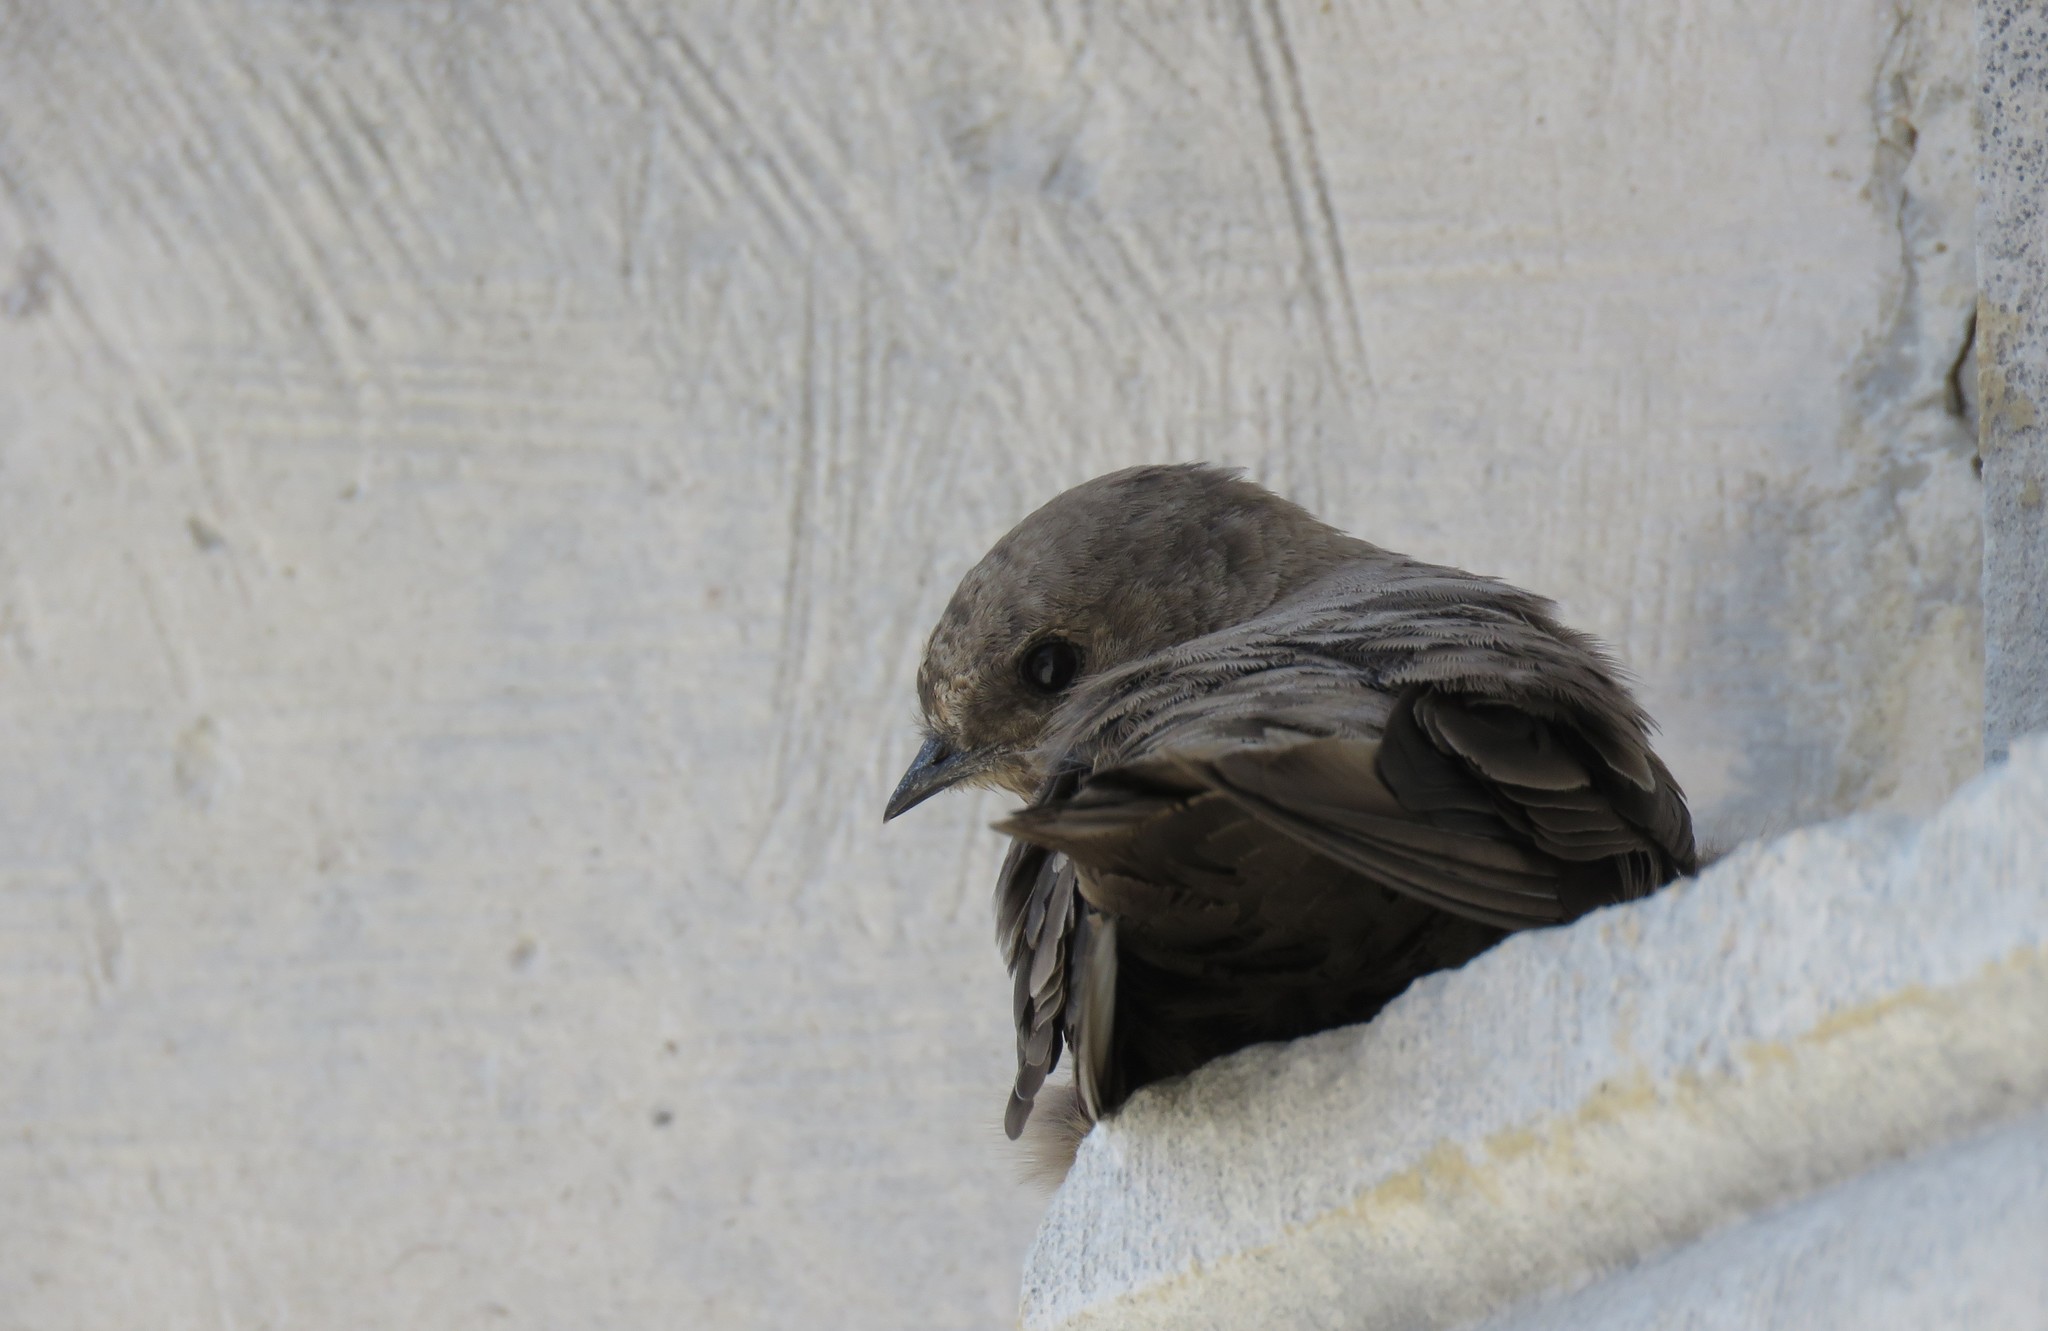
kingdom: Animalia
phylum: Chordata
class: Aves
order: Passeriformes
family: Hirundinidae
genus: Ptyonoprogne
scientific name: Ptyonoprogne rupestris
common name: Eurasian crag martin
